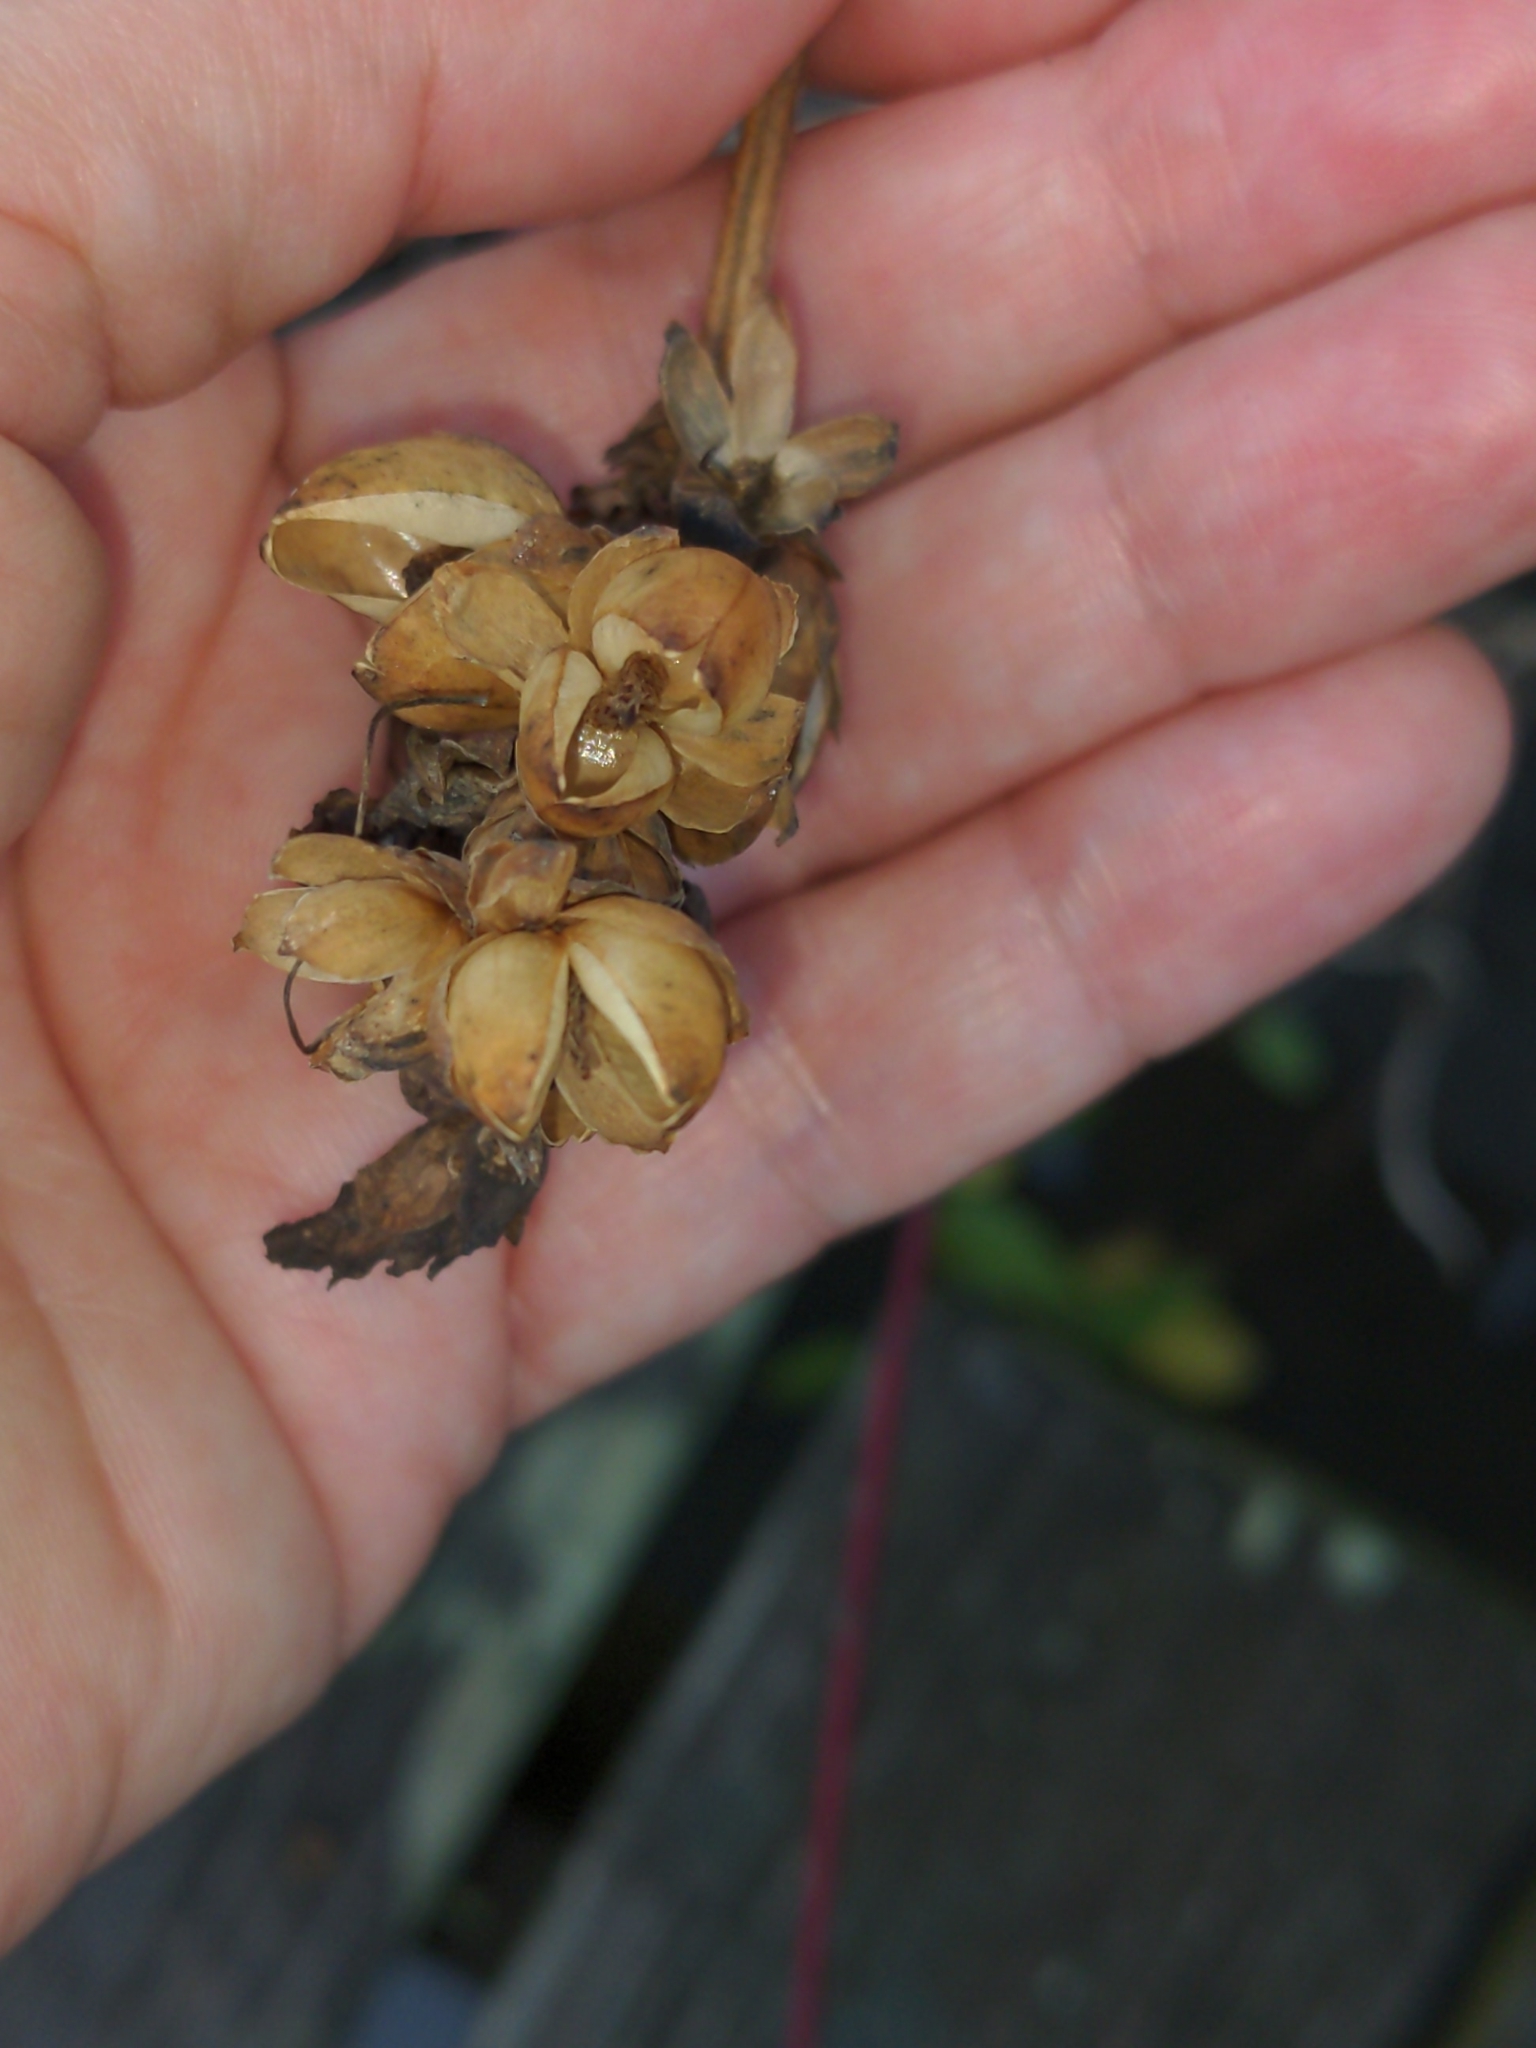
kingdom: Plantae
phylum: Tracheophyta
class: Magnoliopsida
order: Lamiales
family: Plantaginaceae
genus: Chelone
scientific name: Chelone glabra
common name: Snakehead
